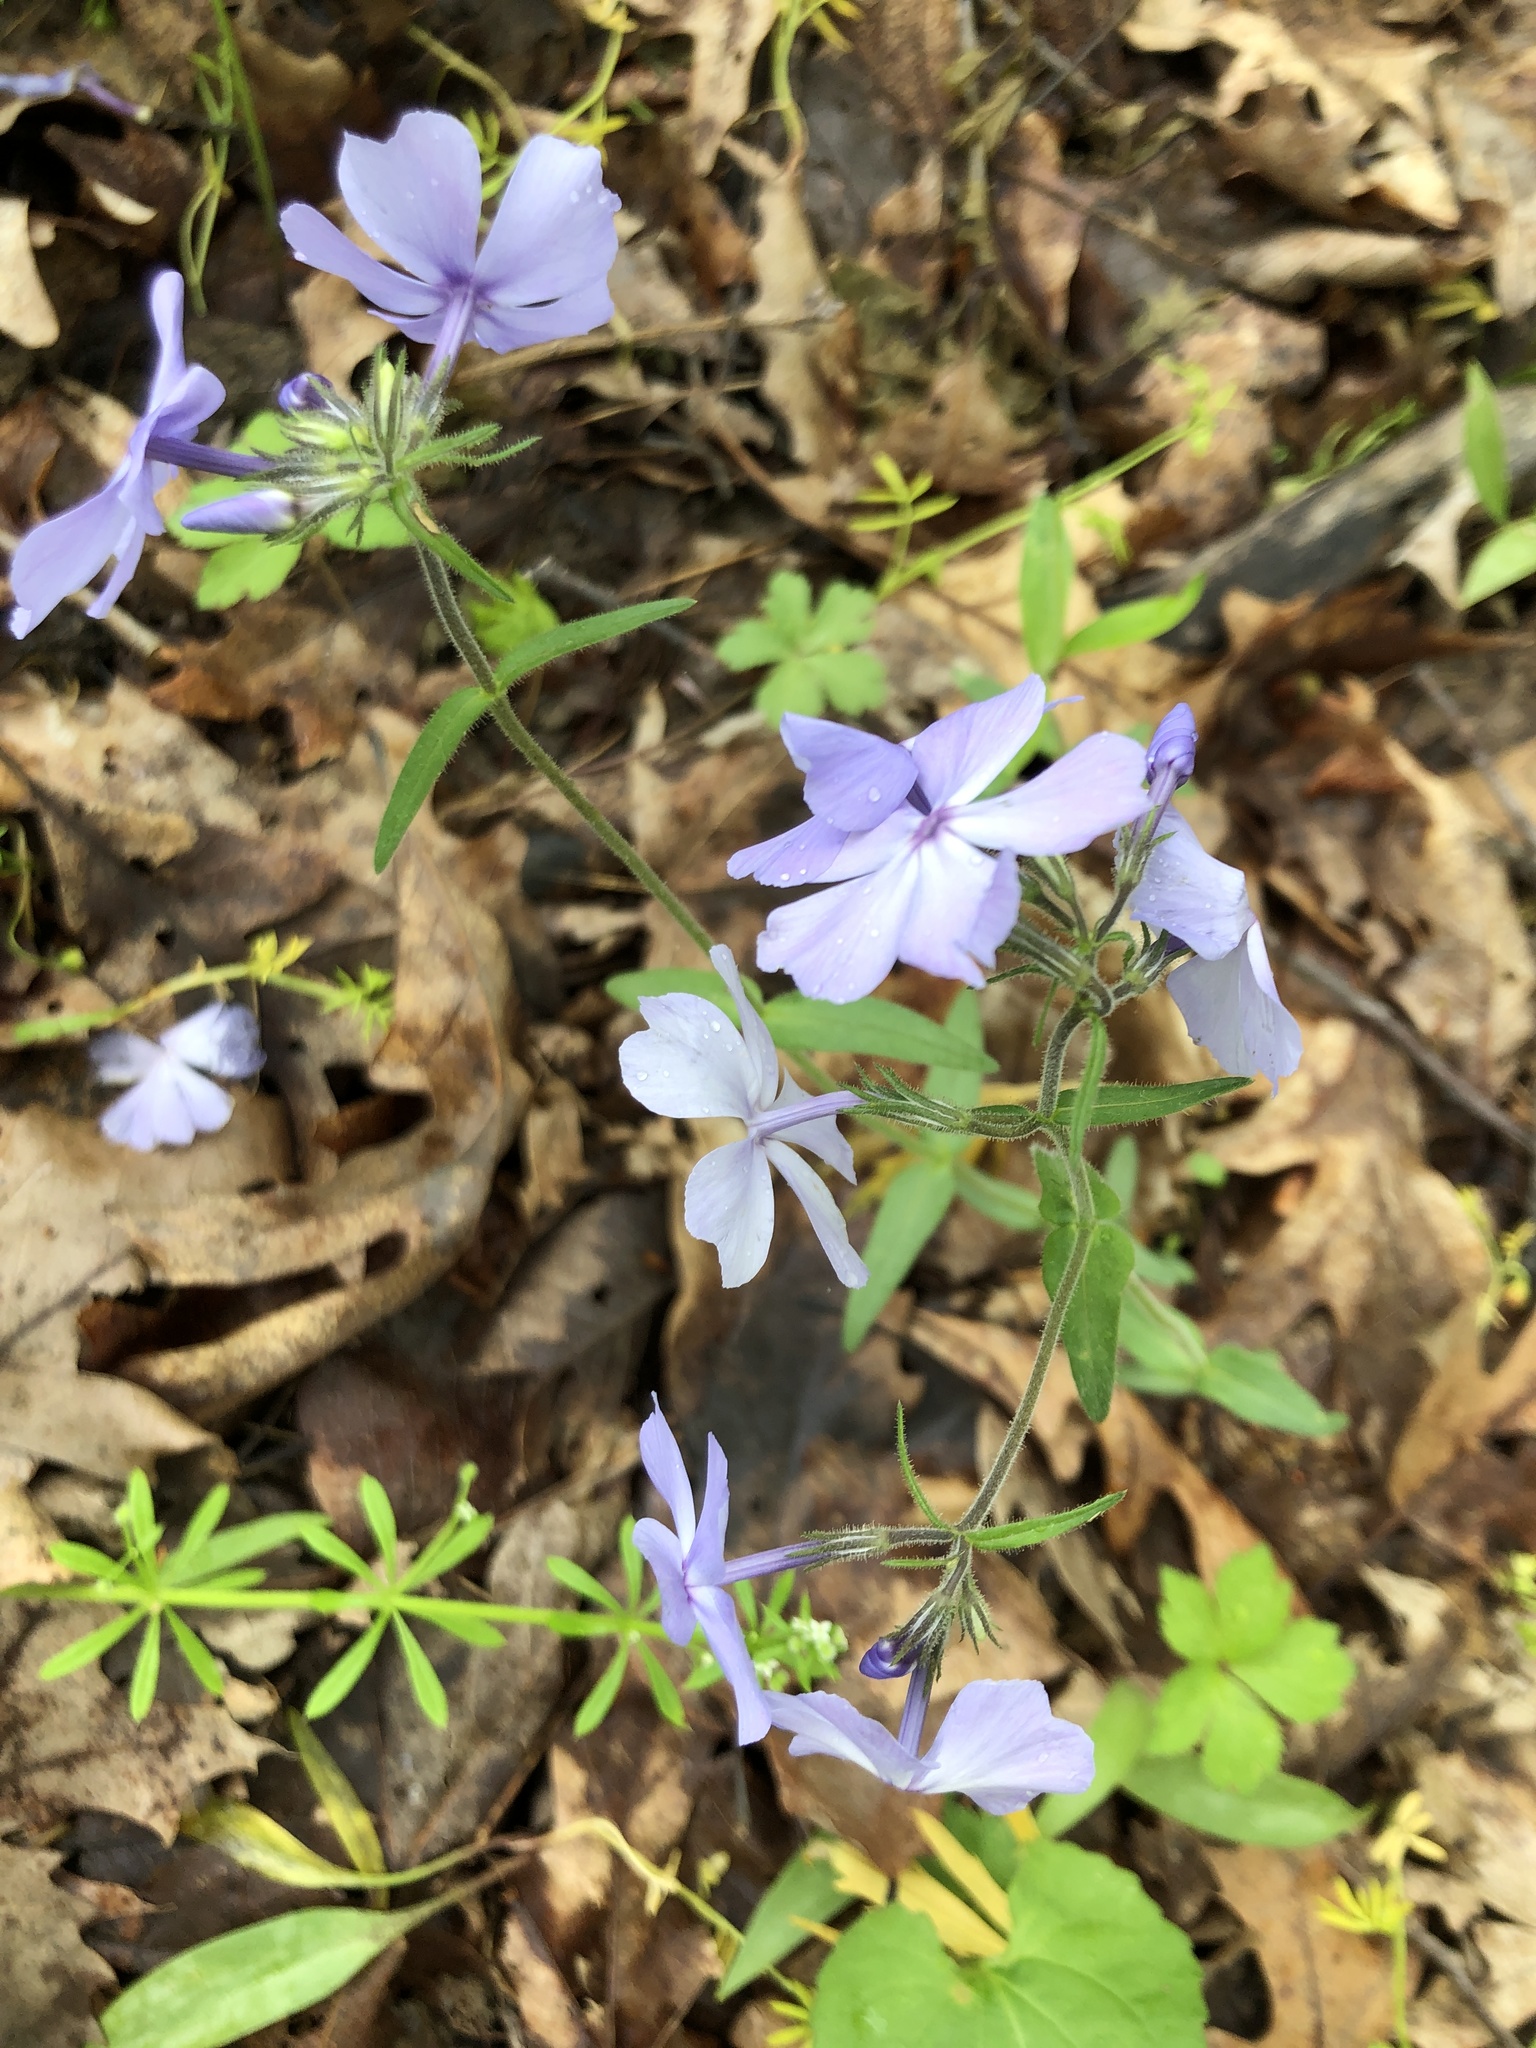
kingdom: Plantae
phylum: Tracheophyta
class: Magnoliopsida
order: Ericales
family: Polemoniaceae
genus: Phlox
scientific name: Phlox divaricata
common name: Blue phlox
